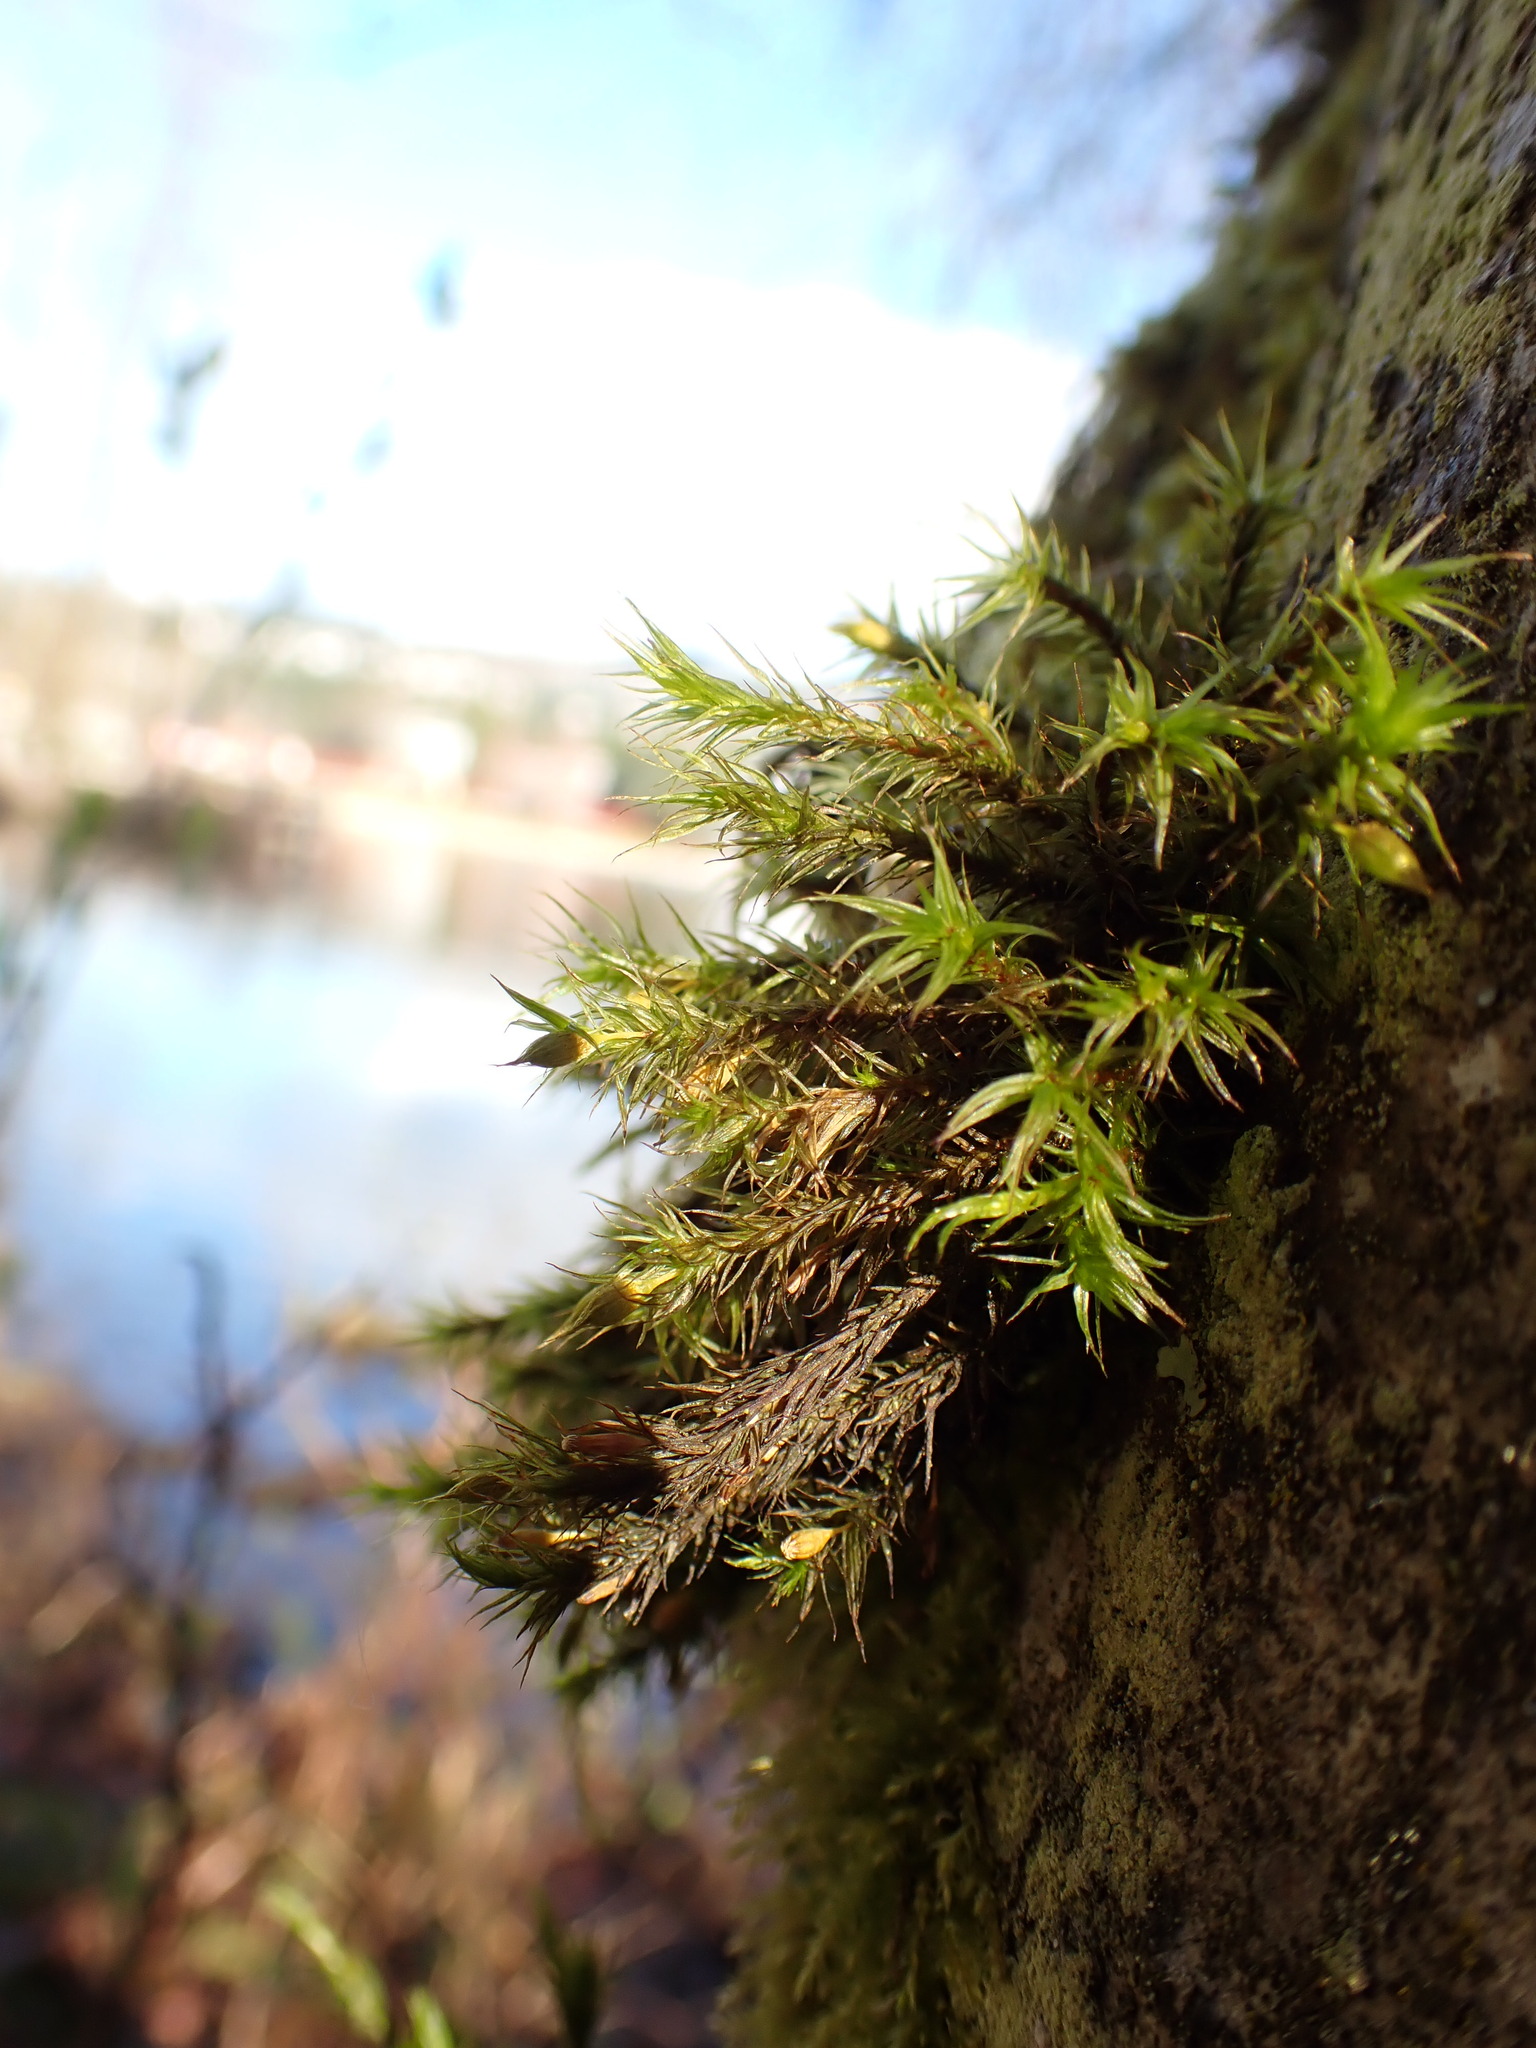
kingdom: Plantae
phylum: Bryophyta
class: Bryopsida
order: Orthotrichales
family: Orthotrichaceae
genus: Pulvigera
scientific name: Pulvigera pringlei
